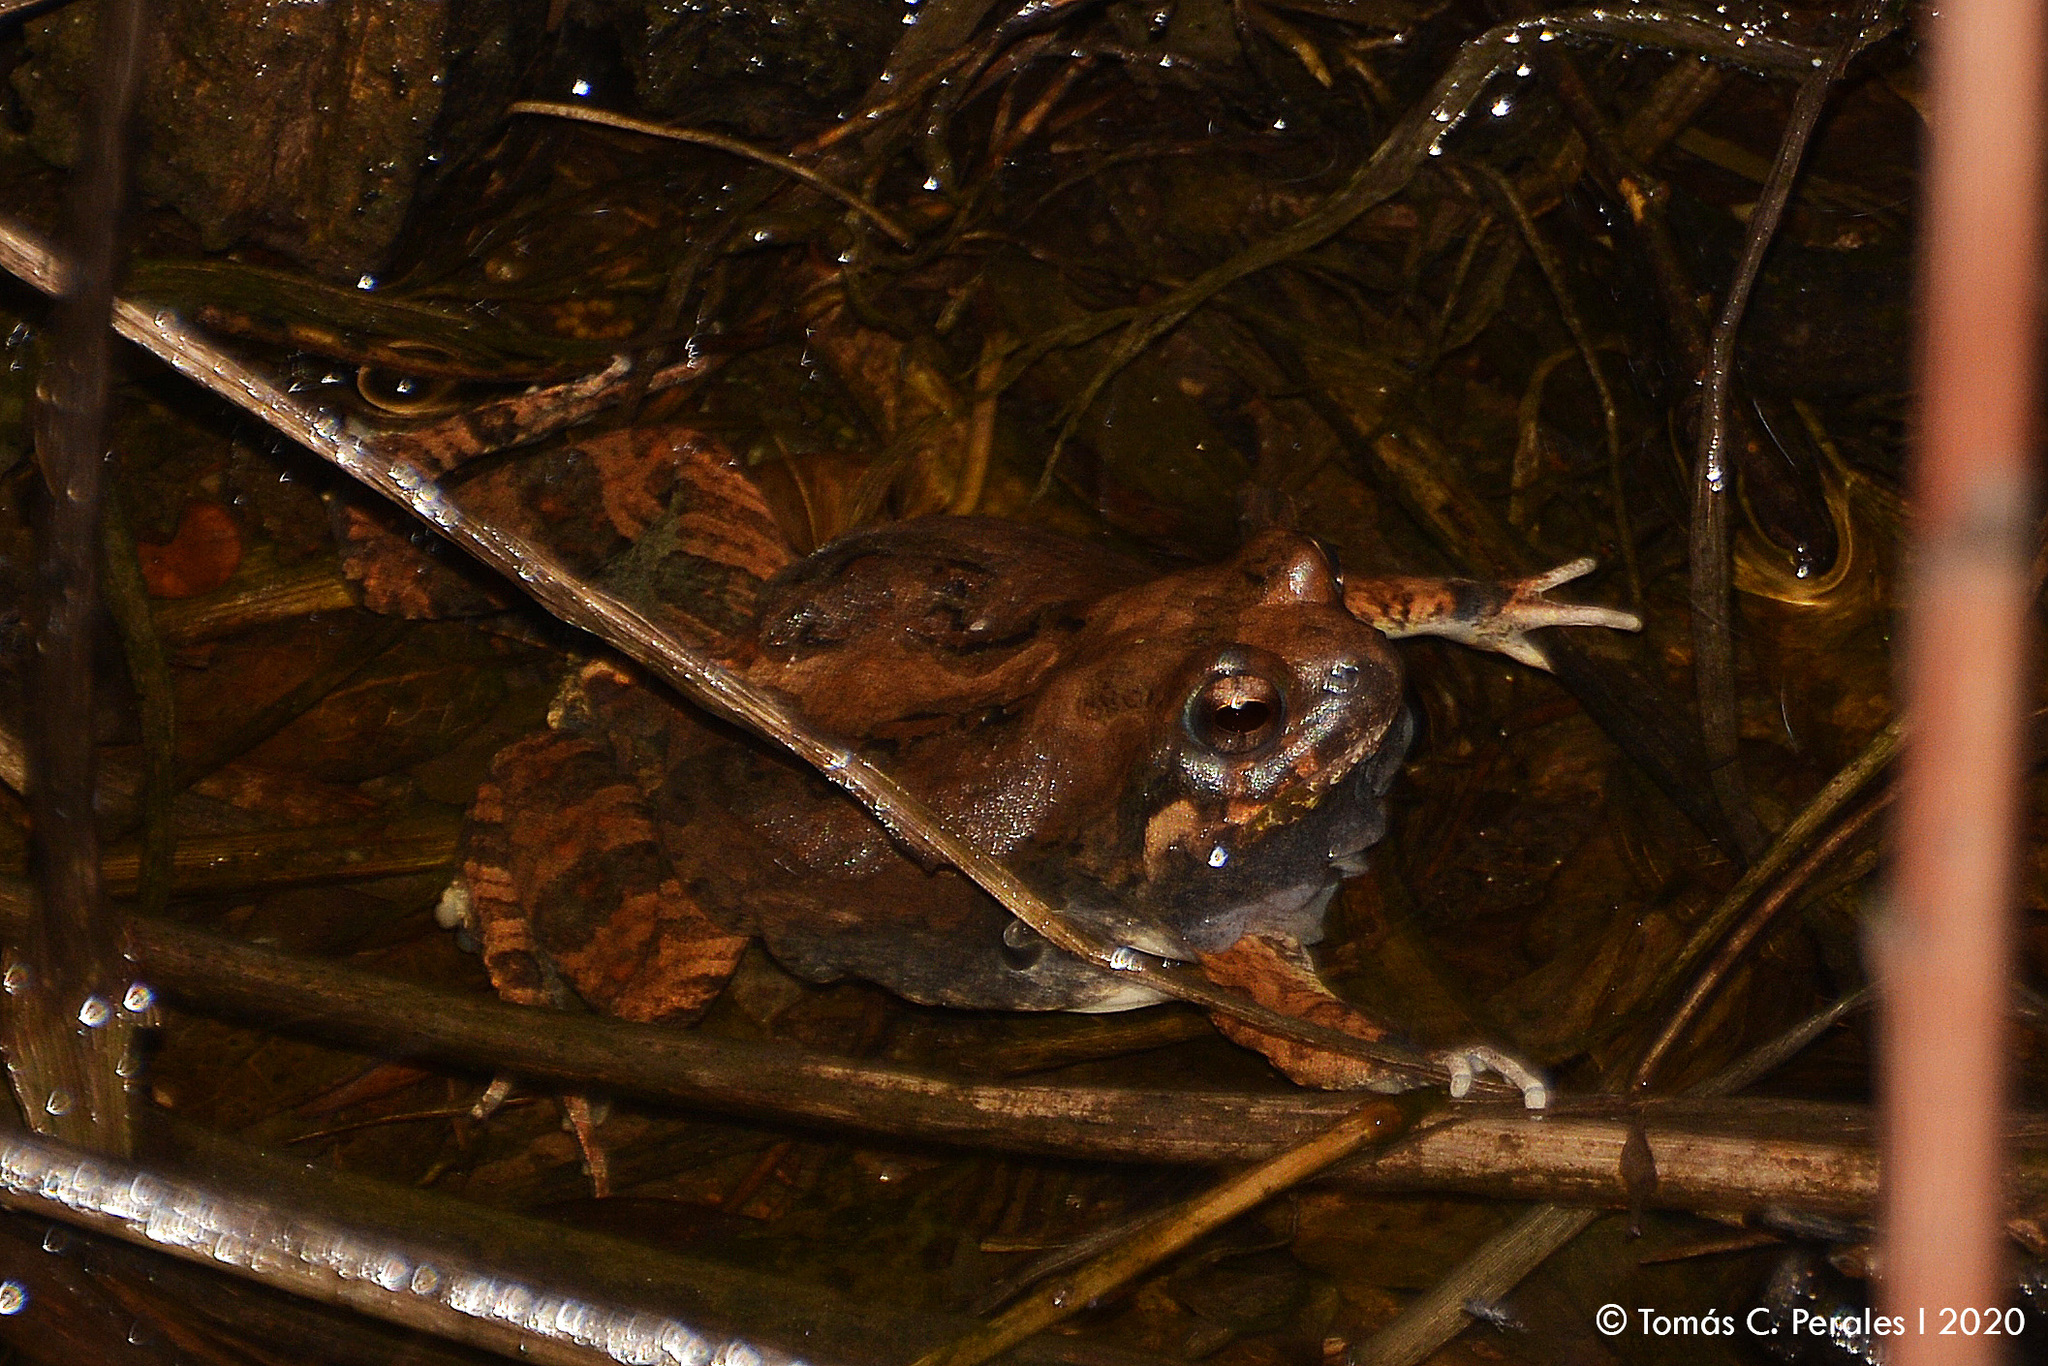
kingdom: Animalia
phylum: Chordata
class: Amphibia
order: Anura
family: Leptodactylidae
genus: Physalaemus
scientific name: Physalaemus biligonigerus
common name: Weeping frog
